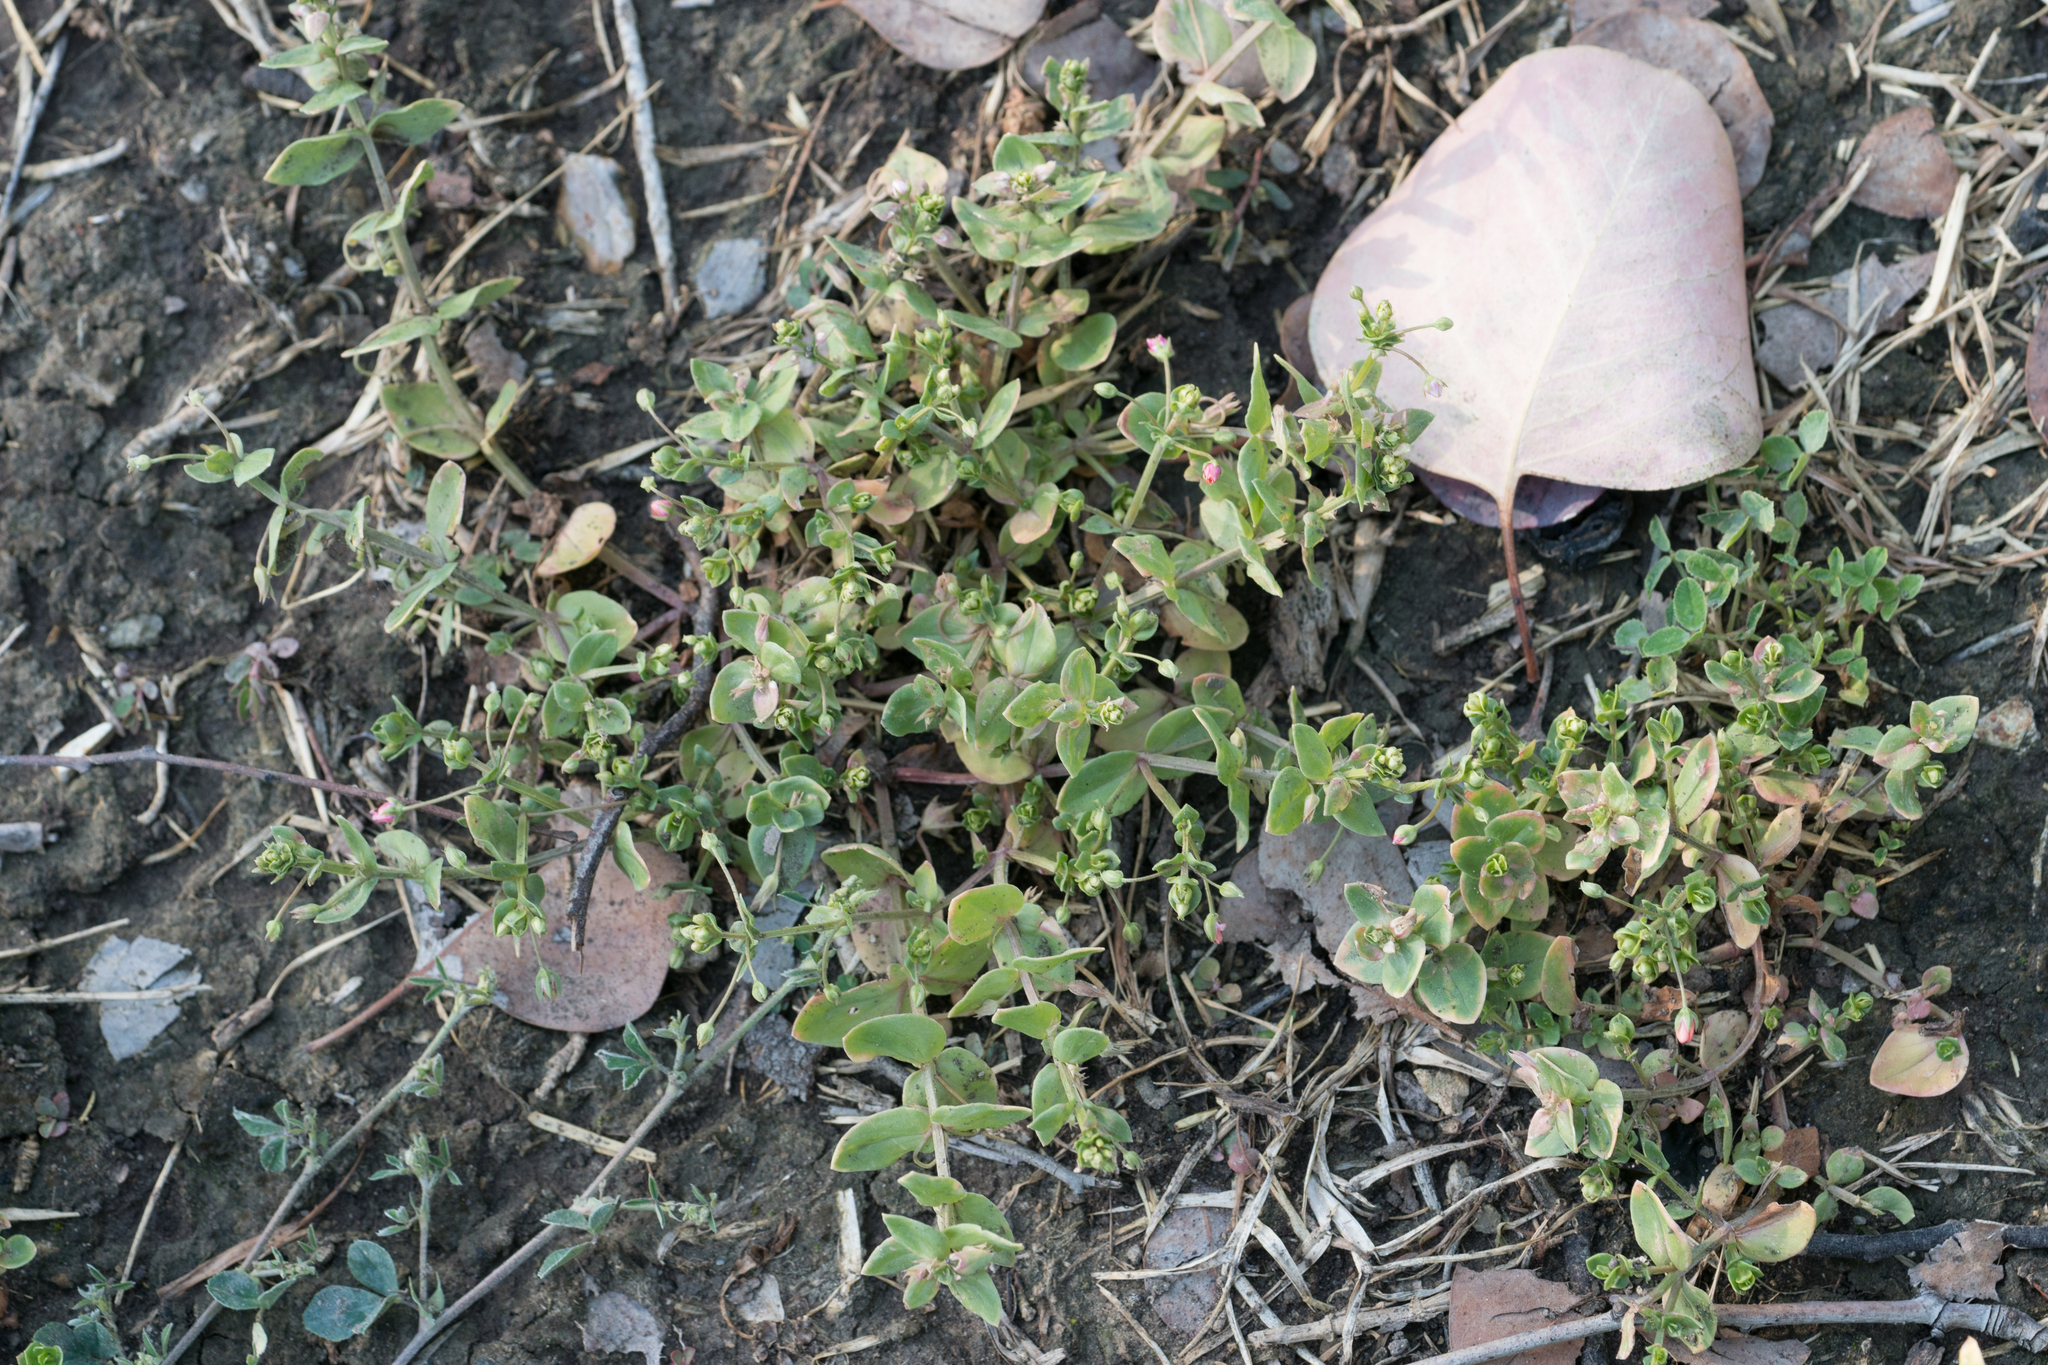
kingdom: Plantae
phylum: Tracheophyta
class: Magnoliopsida
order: Ericales
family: Primulaceae
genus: Lysimachia
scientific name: Lysimachia arvensis
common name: Scarlet pimpernel
